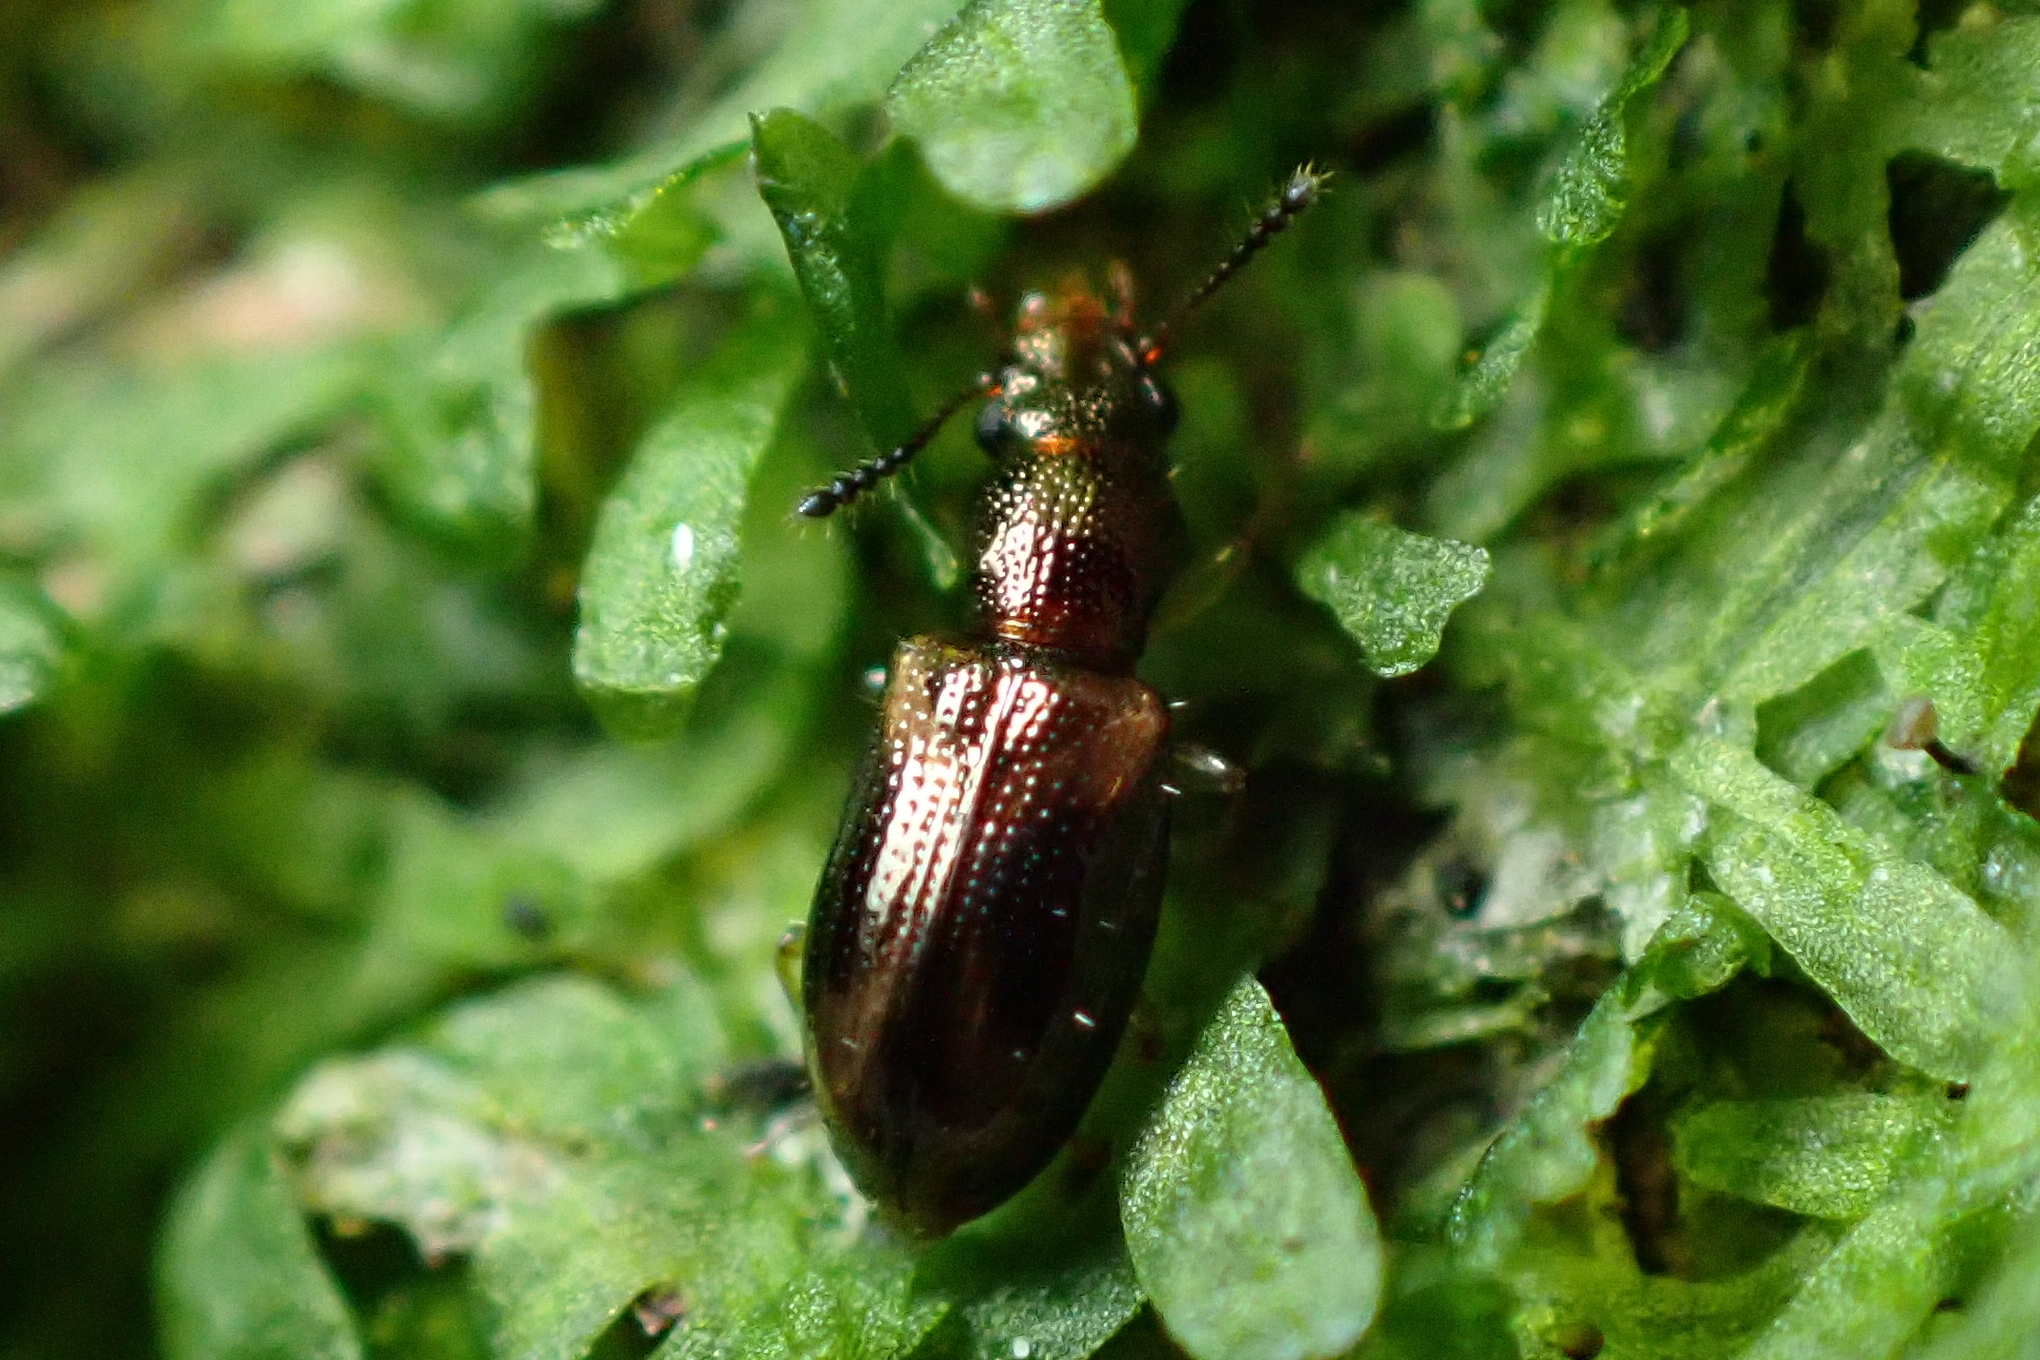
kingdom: Animalia
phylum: Arthropoda
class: Insecta
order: Coleoptera
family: Salpingidae
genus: Salpingus
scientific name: Salpingus
